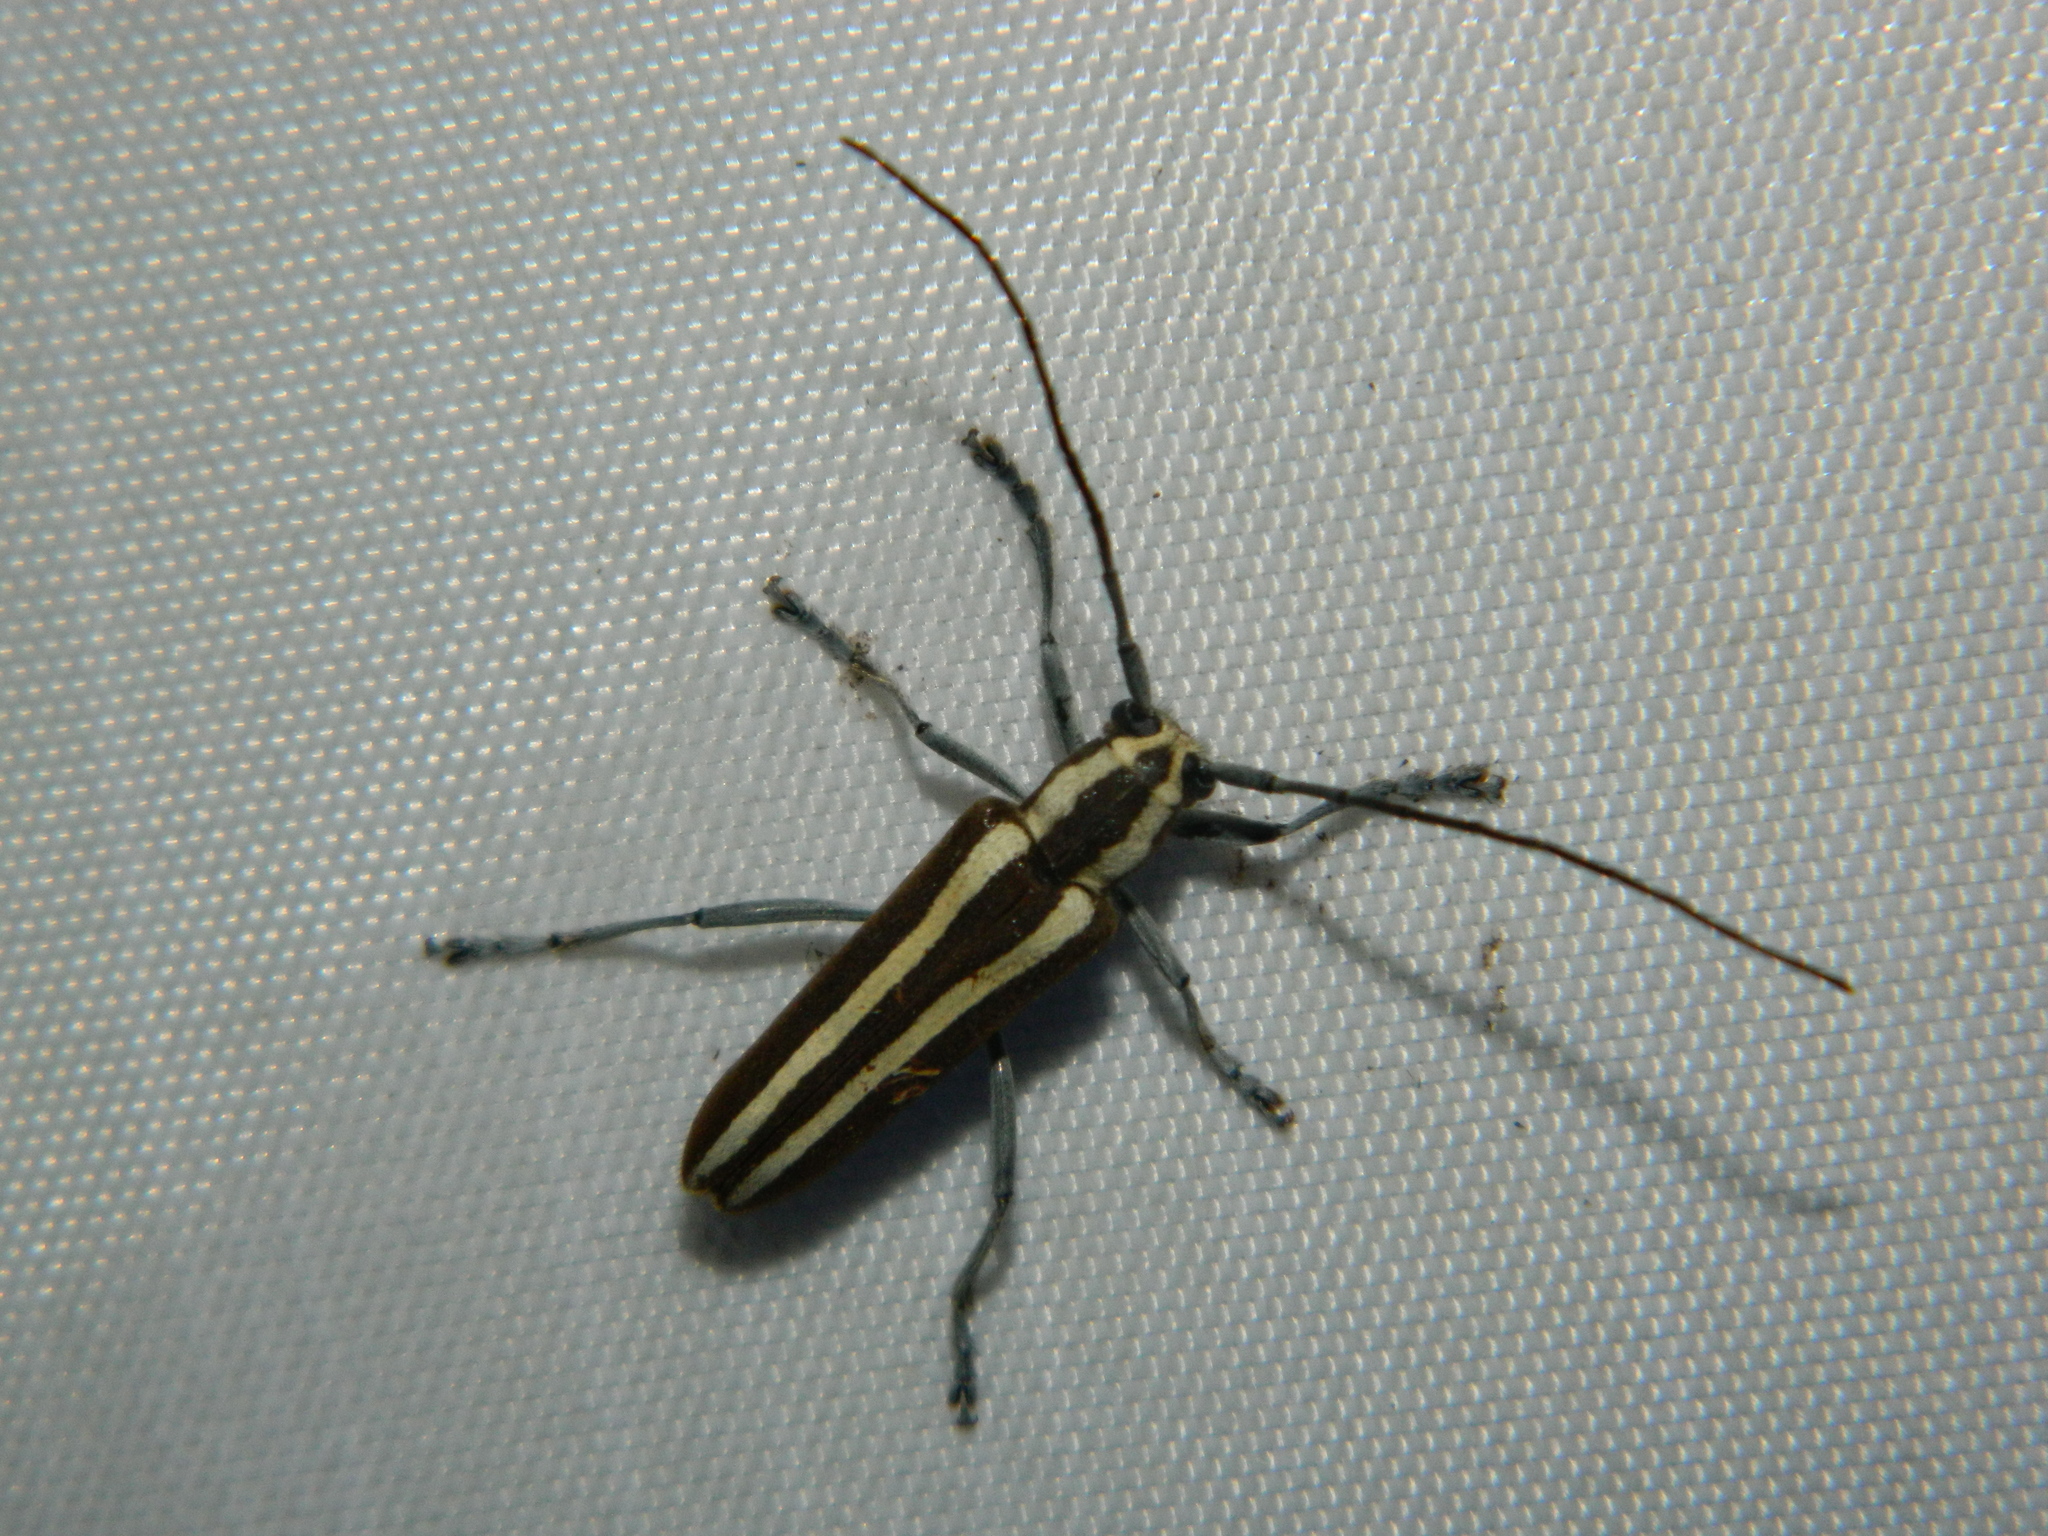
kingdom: Animalia
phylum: Arthropoda
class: Insecta
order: Coleoptera
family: Cerambycidae
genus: Saperda
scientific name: Saperda candida
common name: Round-headed borer
